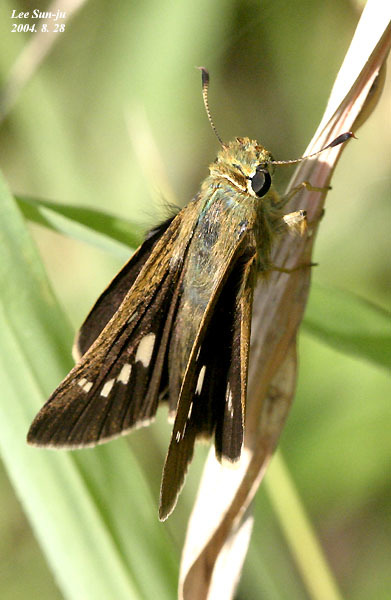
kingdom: Animalia
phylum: Arthropoda
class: Insecta
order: Lepidoptera
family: Hesperiidae
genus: Parnara
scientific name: Parnara guttatus
